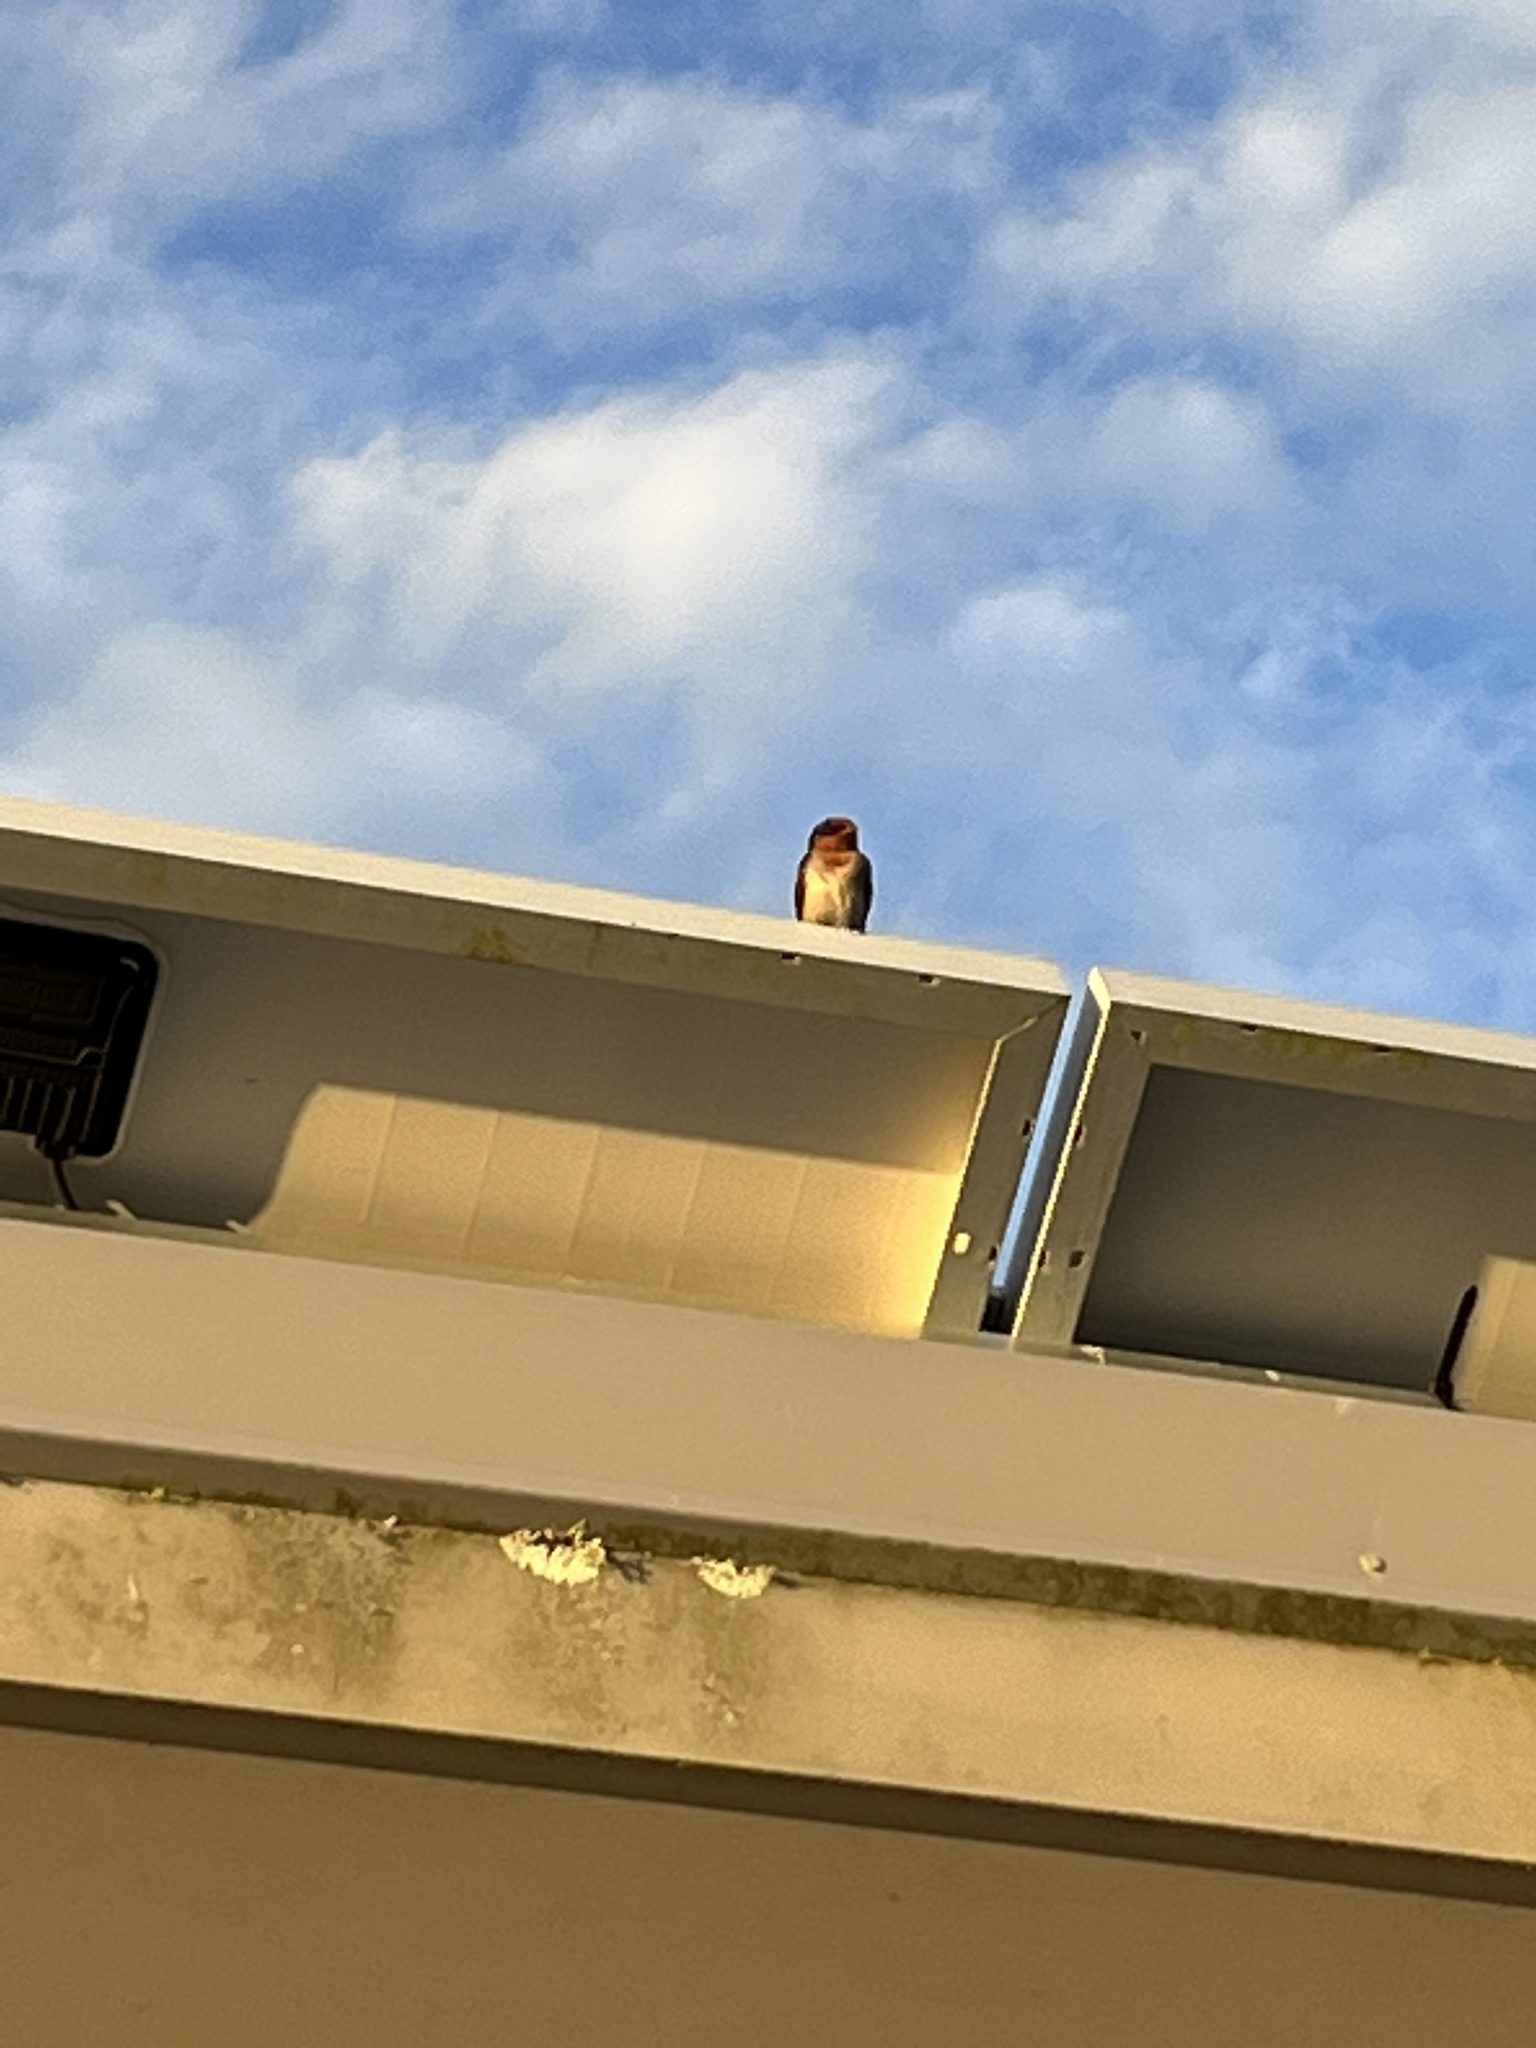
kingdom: Animalia
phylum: Chordata
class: Aves
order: Passeriformes
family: Hirundinidae
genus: Hirundo
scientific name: Hirundo neoxena
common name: Welcome swallow
